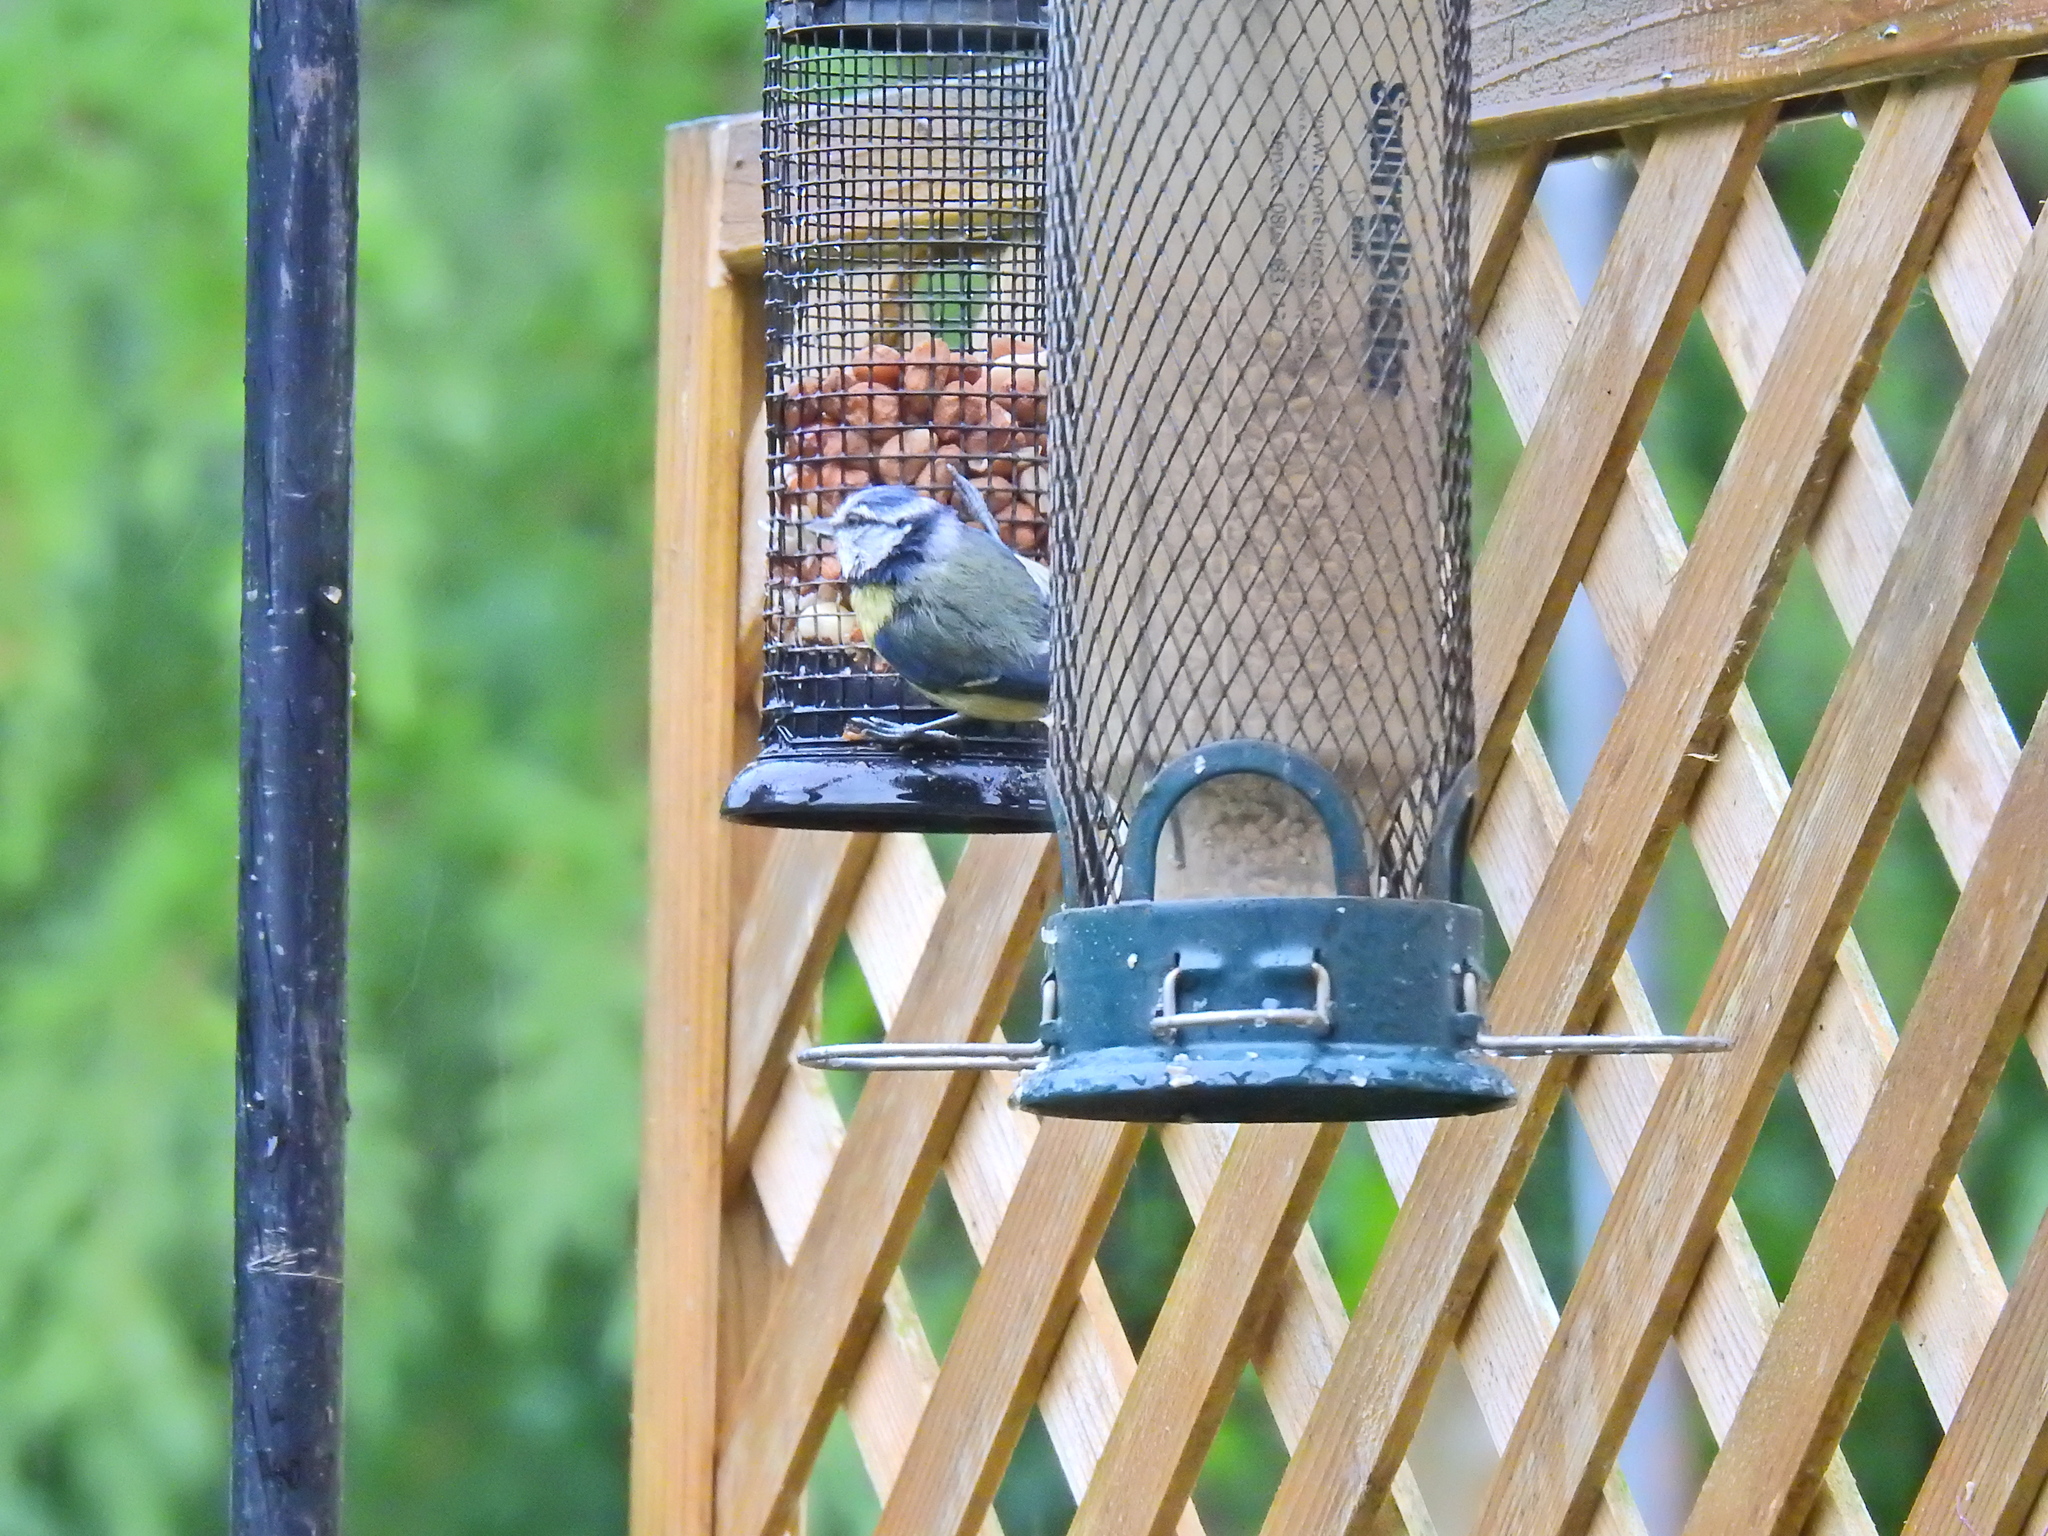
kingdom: Animalia
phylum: Chordata
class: Aves
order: Passeriformes
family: Paridae
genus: Cyanistes
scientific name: Cyanistes caeruleus
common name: Eurasian blue tit
